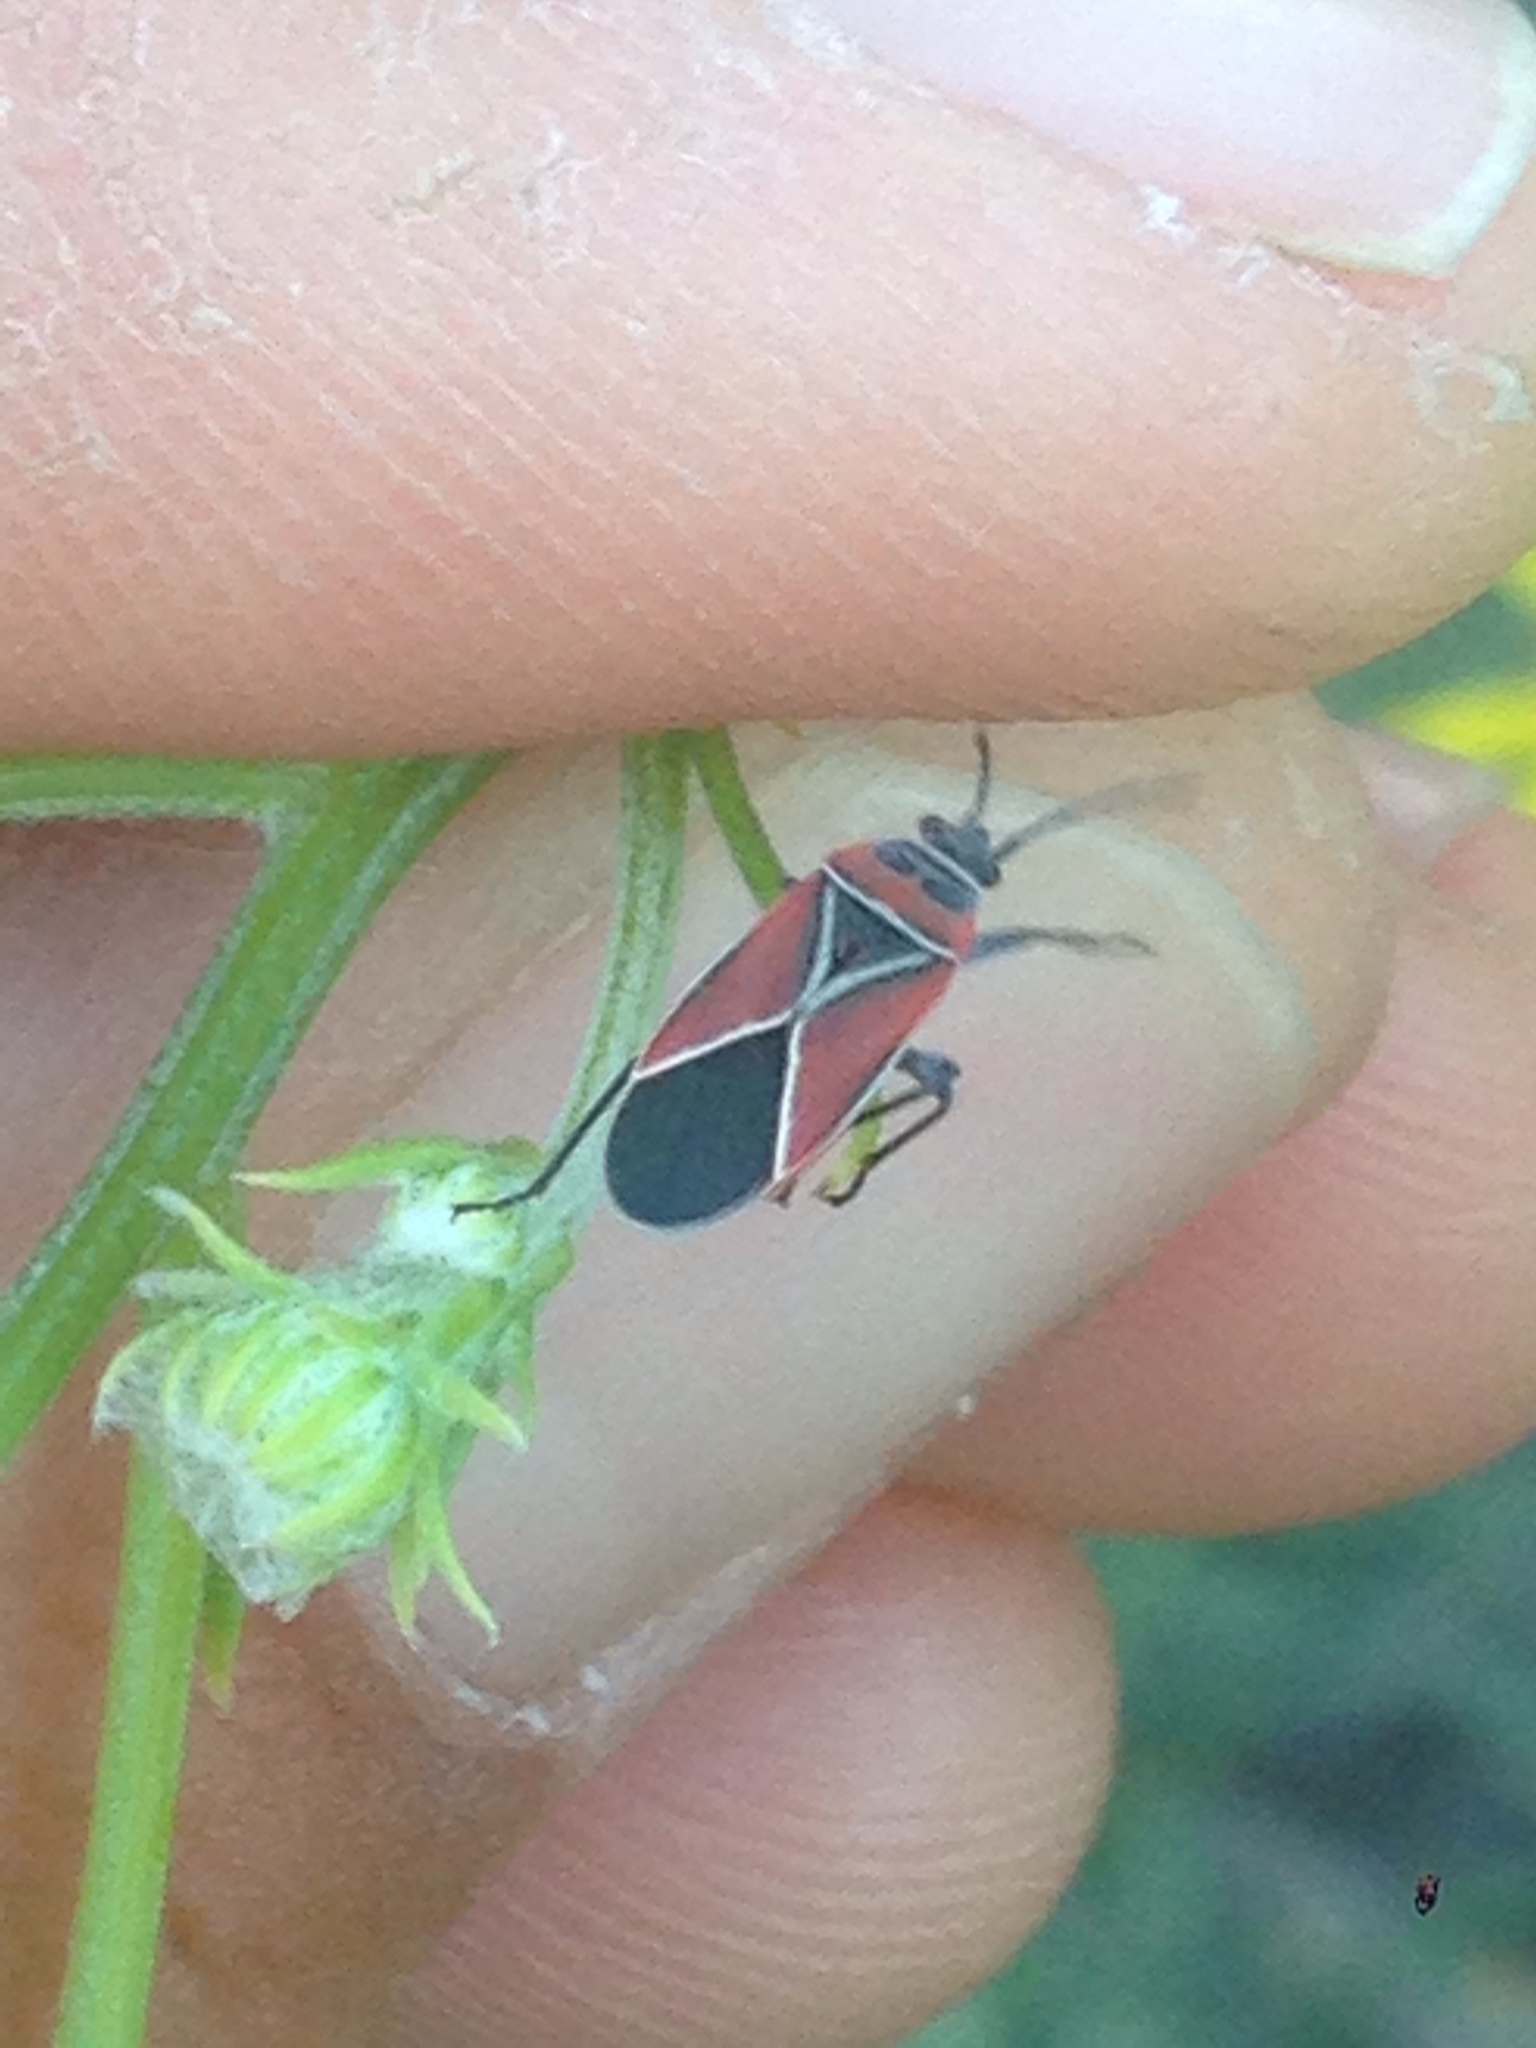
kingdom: Animalia
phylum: Arthropoda
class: Insecta
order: Hemiptera
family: Lygaeidae
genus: Neacoryphus
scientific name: Neacoryphus bicrucis
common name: Lygaeid bug
